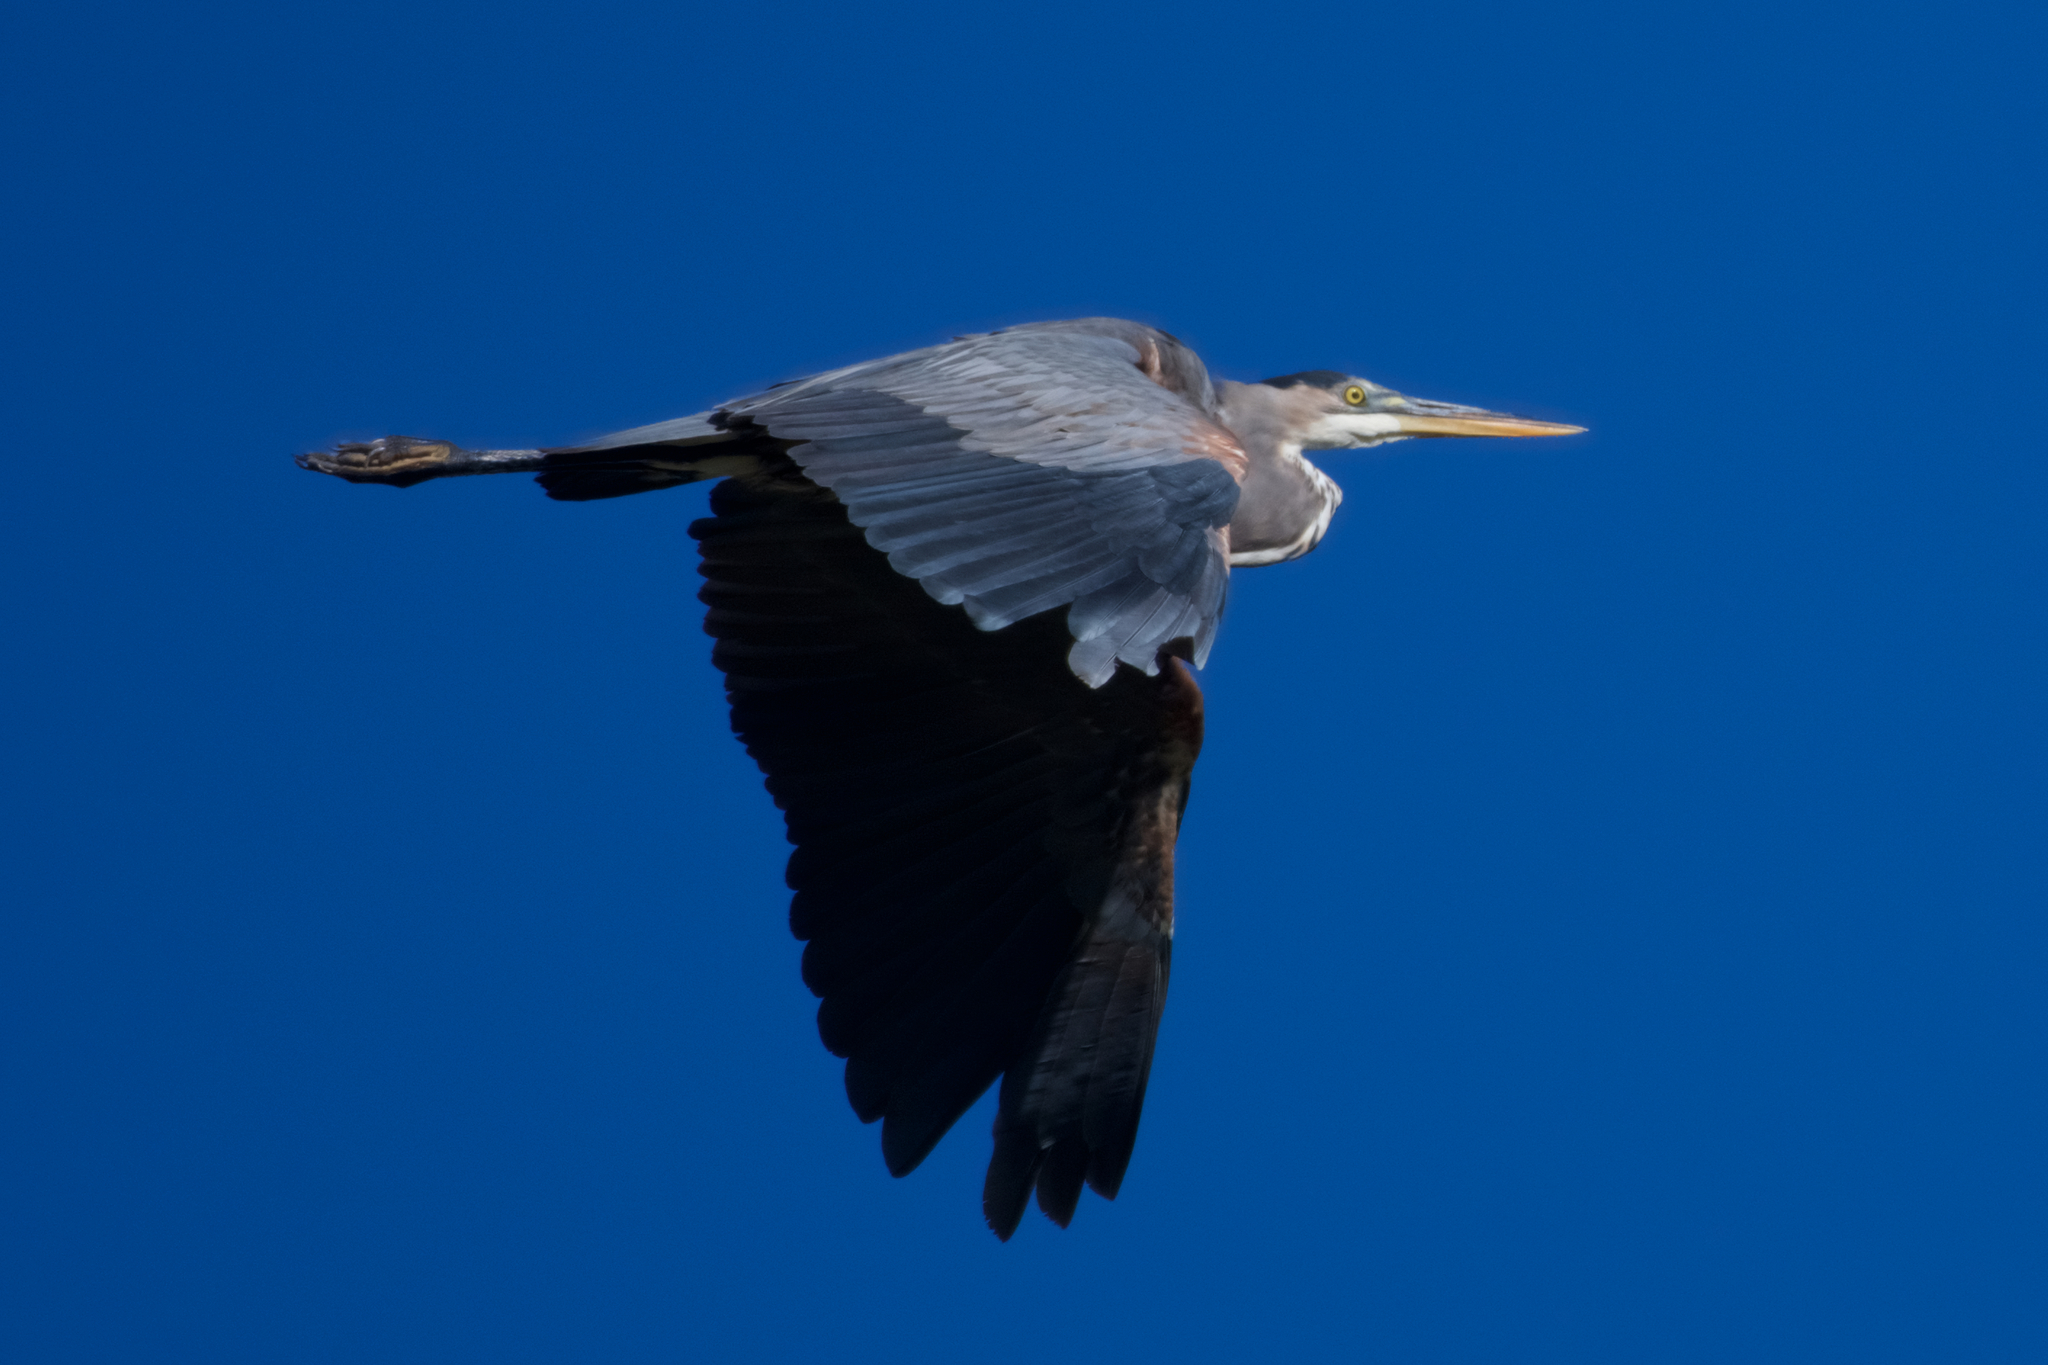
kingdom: Animalia
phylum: Chordata
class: Aves
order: Pelecaniformes
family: Ardeidae
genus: Ardea
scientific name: Ardea herodias
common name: Great blue heron
